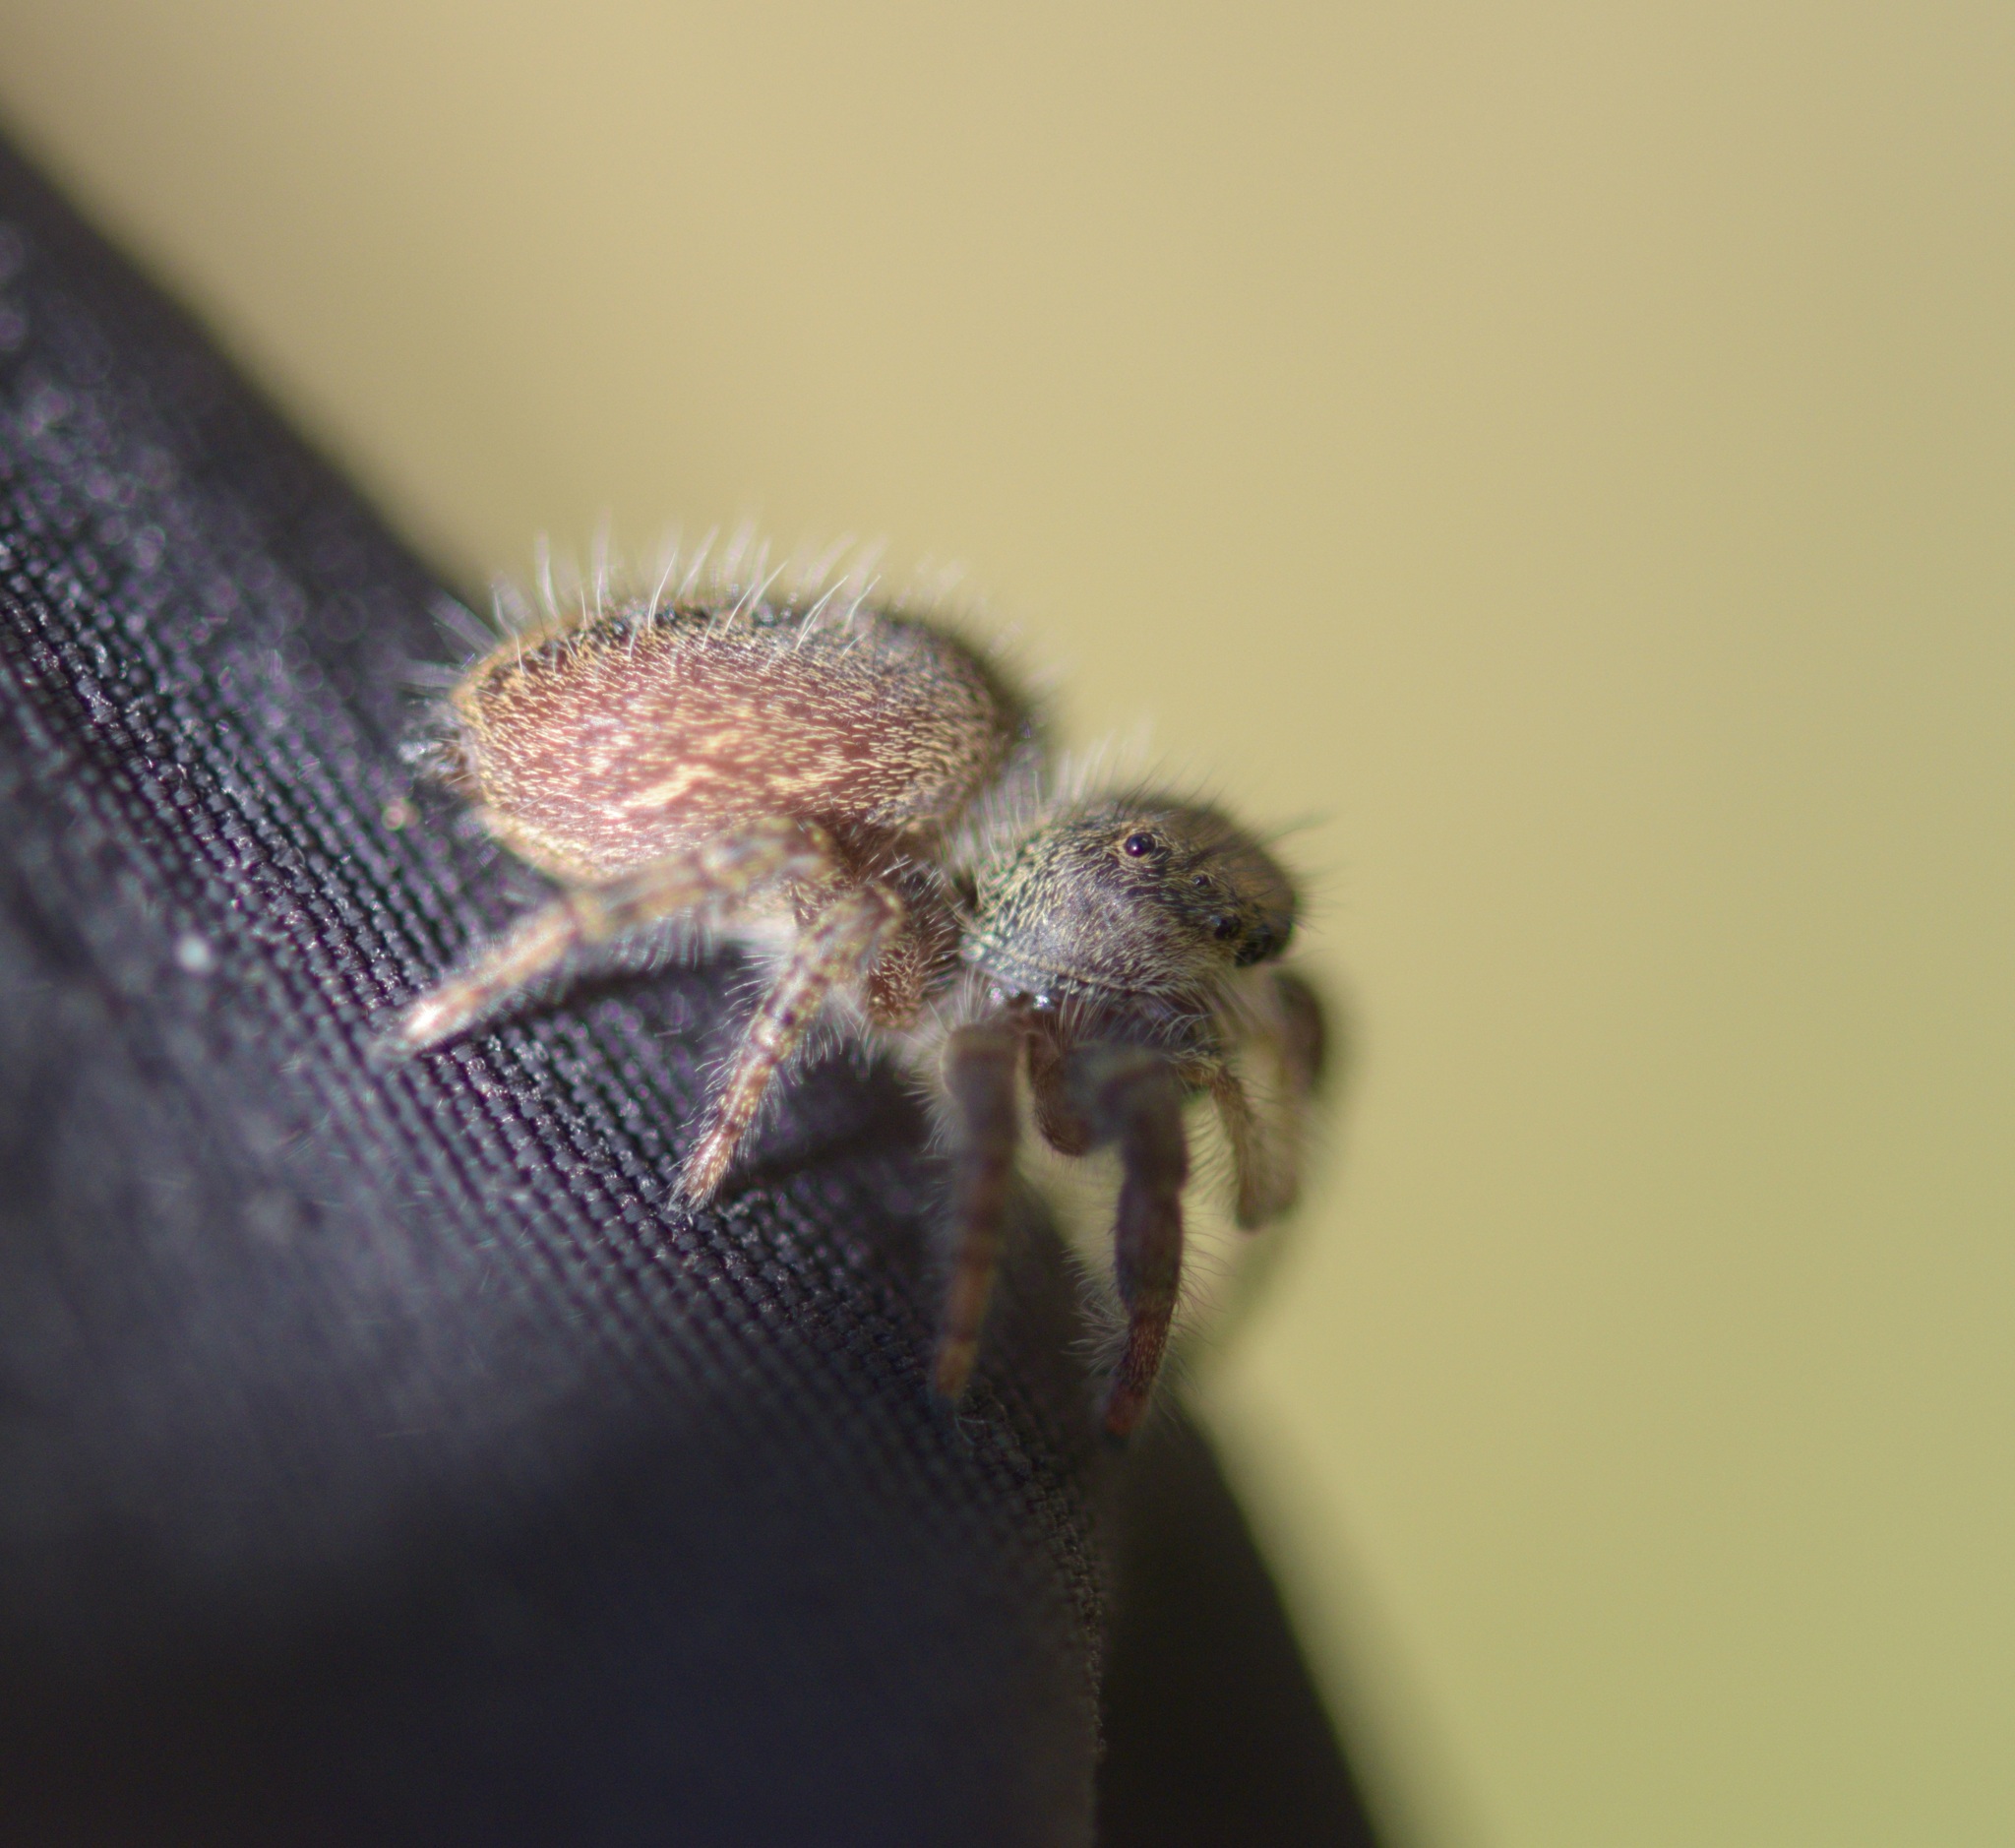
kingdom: Animalia
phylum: Arthropoda
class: Arachnida
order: Araneae
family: Salticidae
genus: Phidippus
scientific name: Phidippus princeps
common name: Grayish jumping spider
